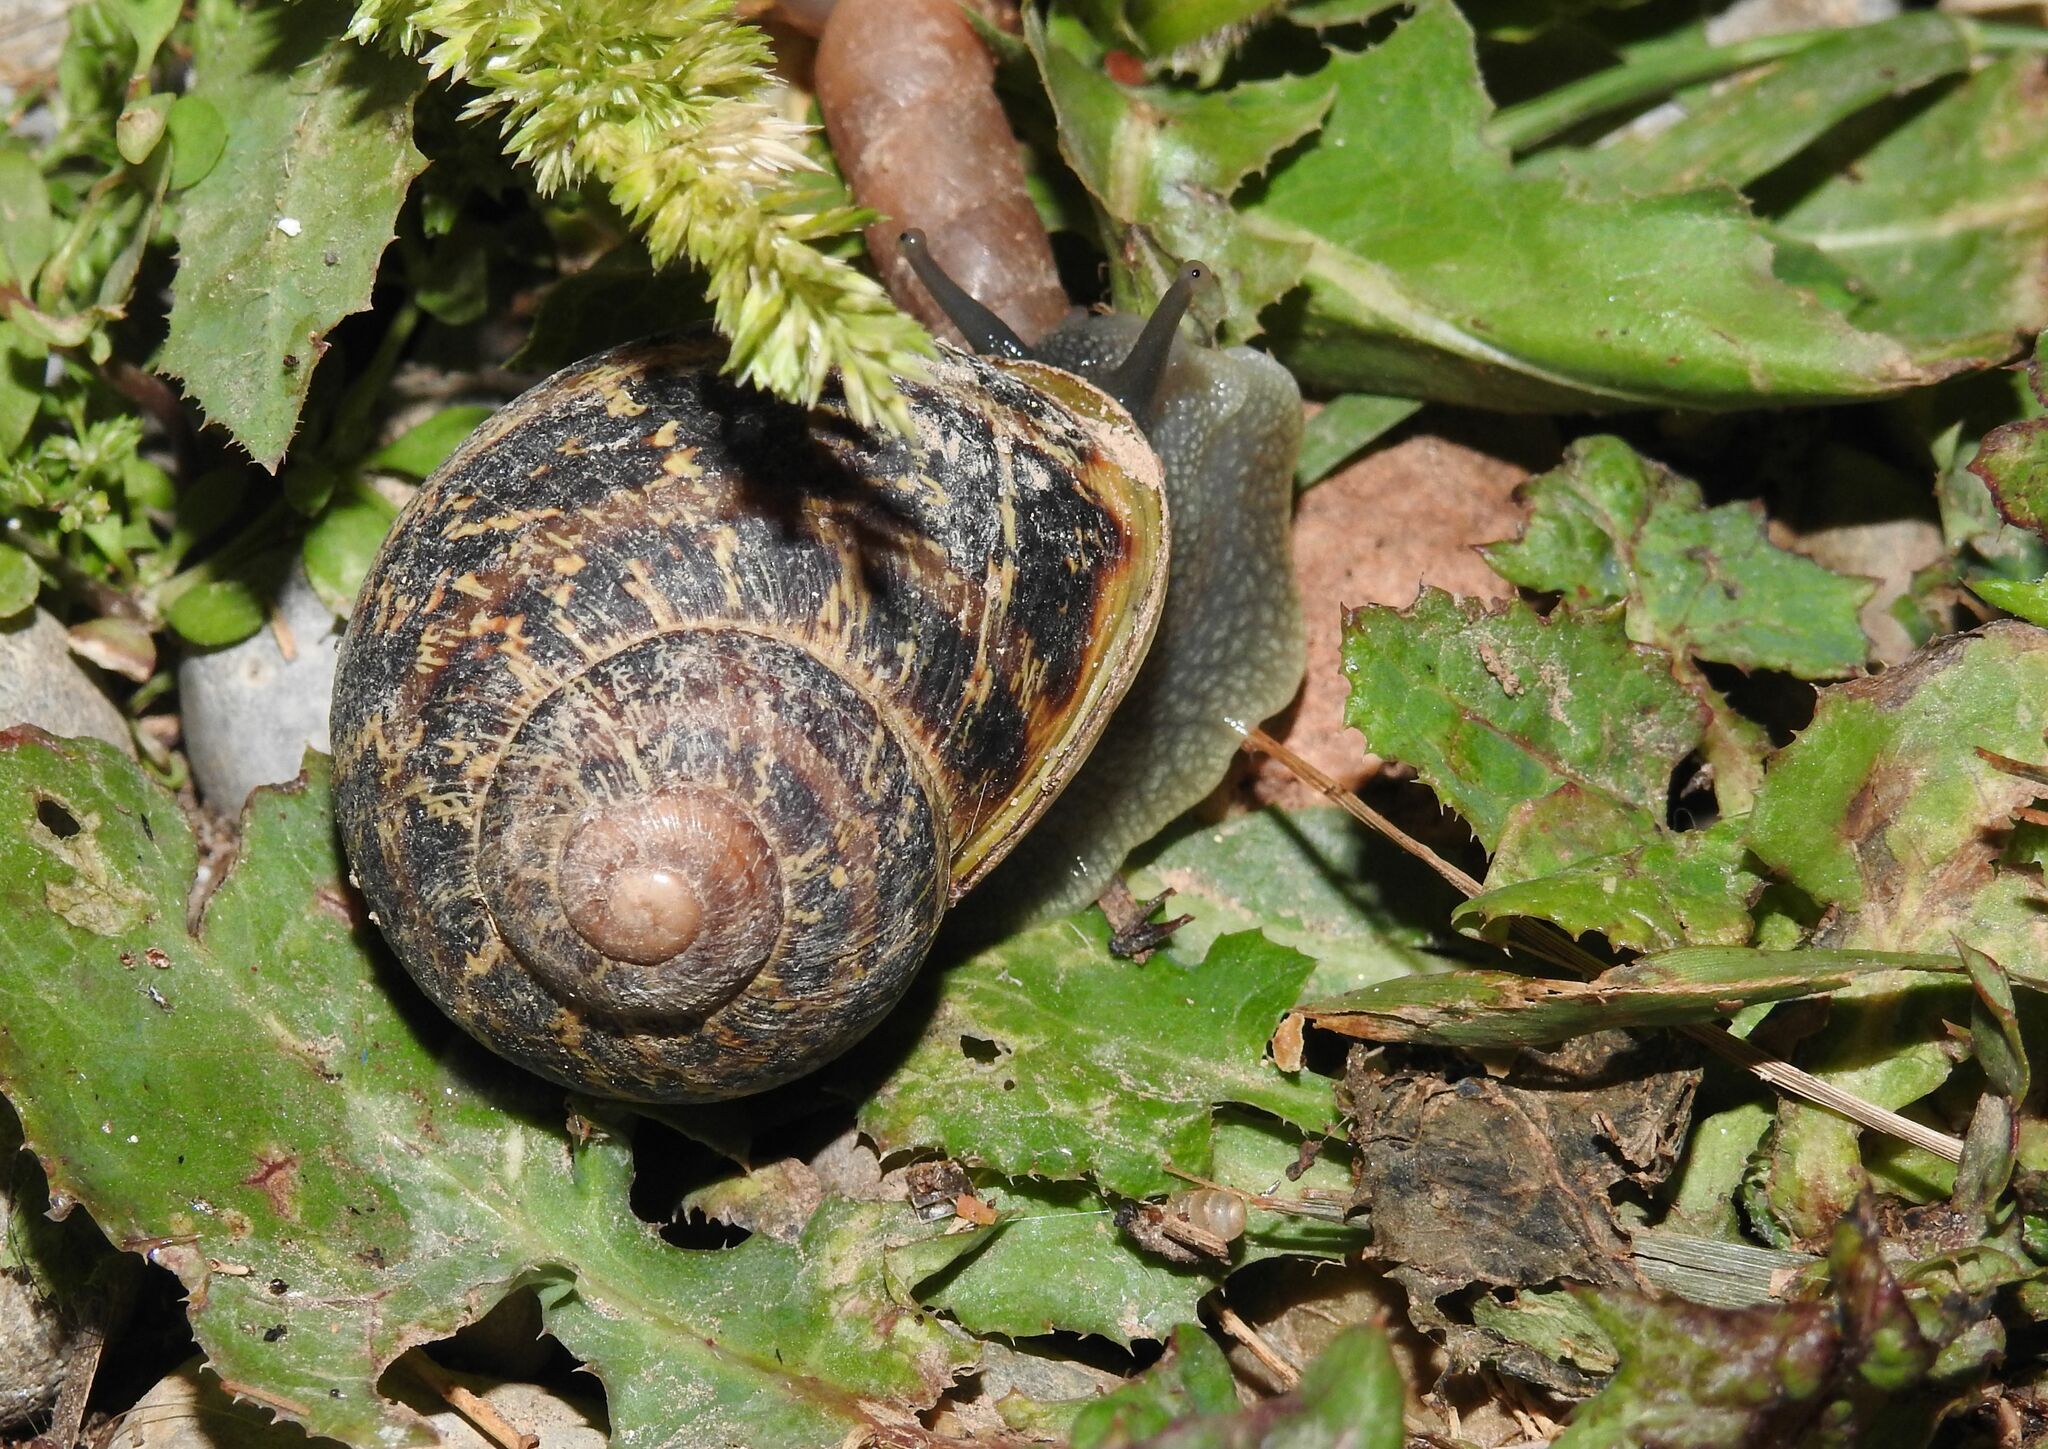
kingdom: Animalia
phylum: Mollusca
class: Gastropoda
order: Stylommatophora
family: Helicidae
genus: Cornu
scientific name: Cornu aspersum
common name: Brown garden snail
